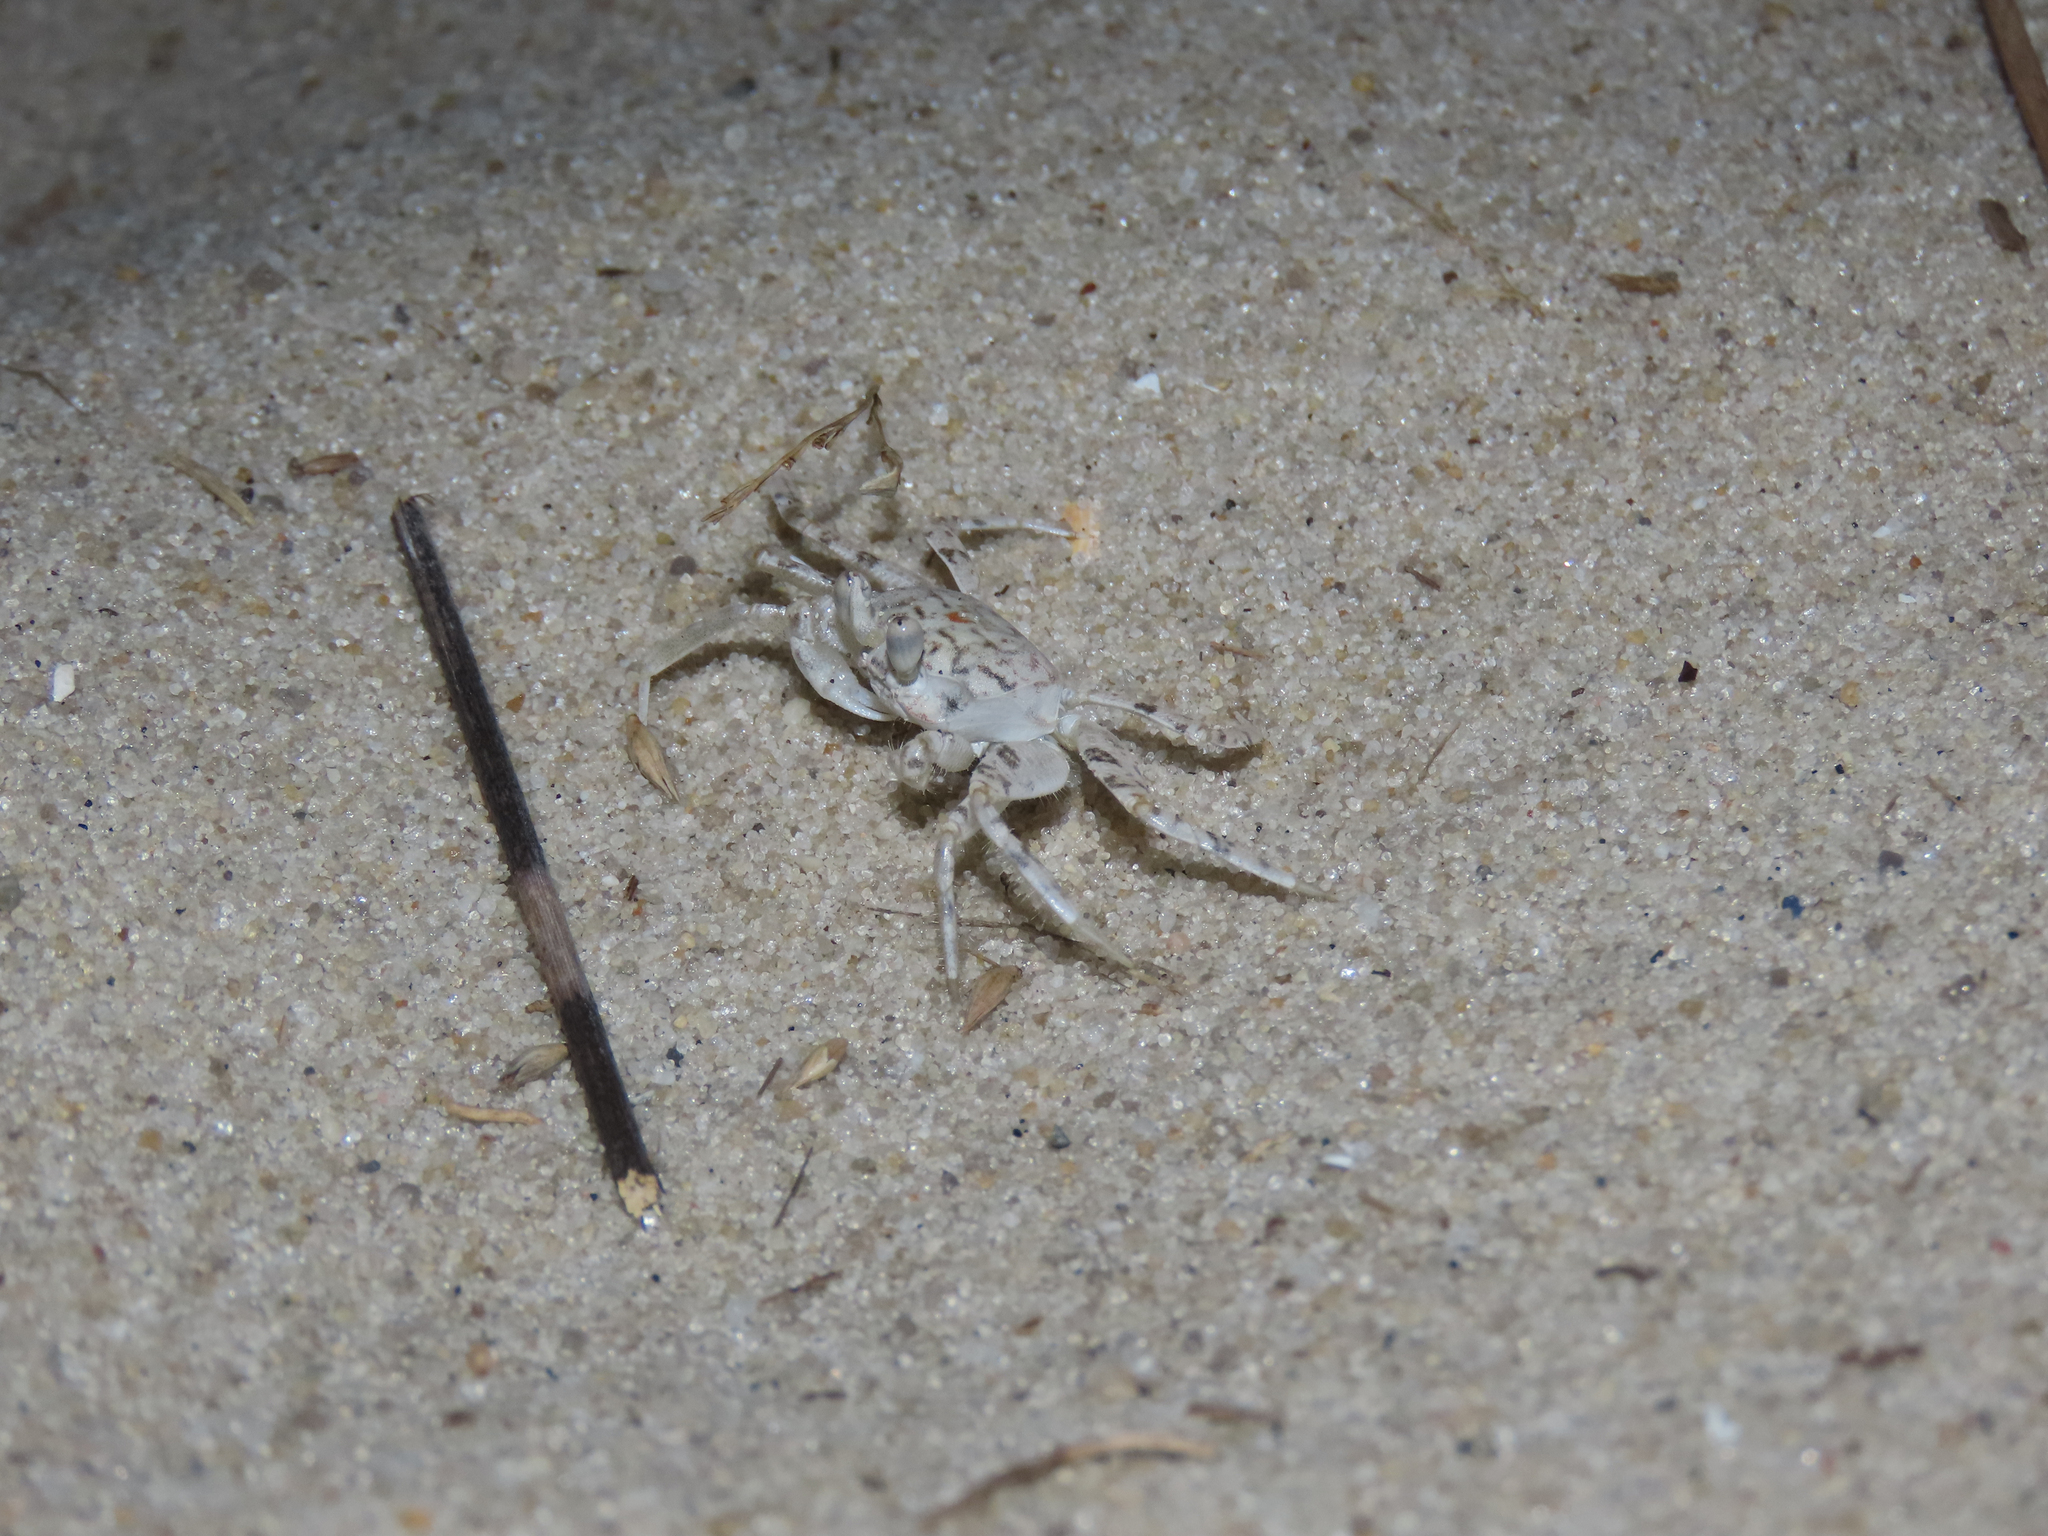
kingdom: Animalia
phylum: Arthropoda
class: Malacostraca
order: Decapoda
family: Ocypodidae
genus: Ocypode
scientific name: Ocypode quadrata
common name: Ghost crab
